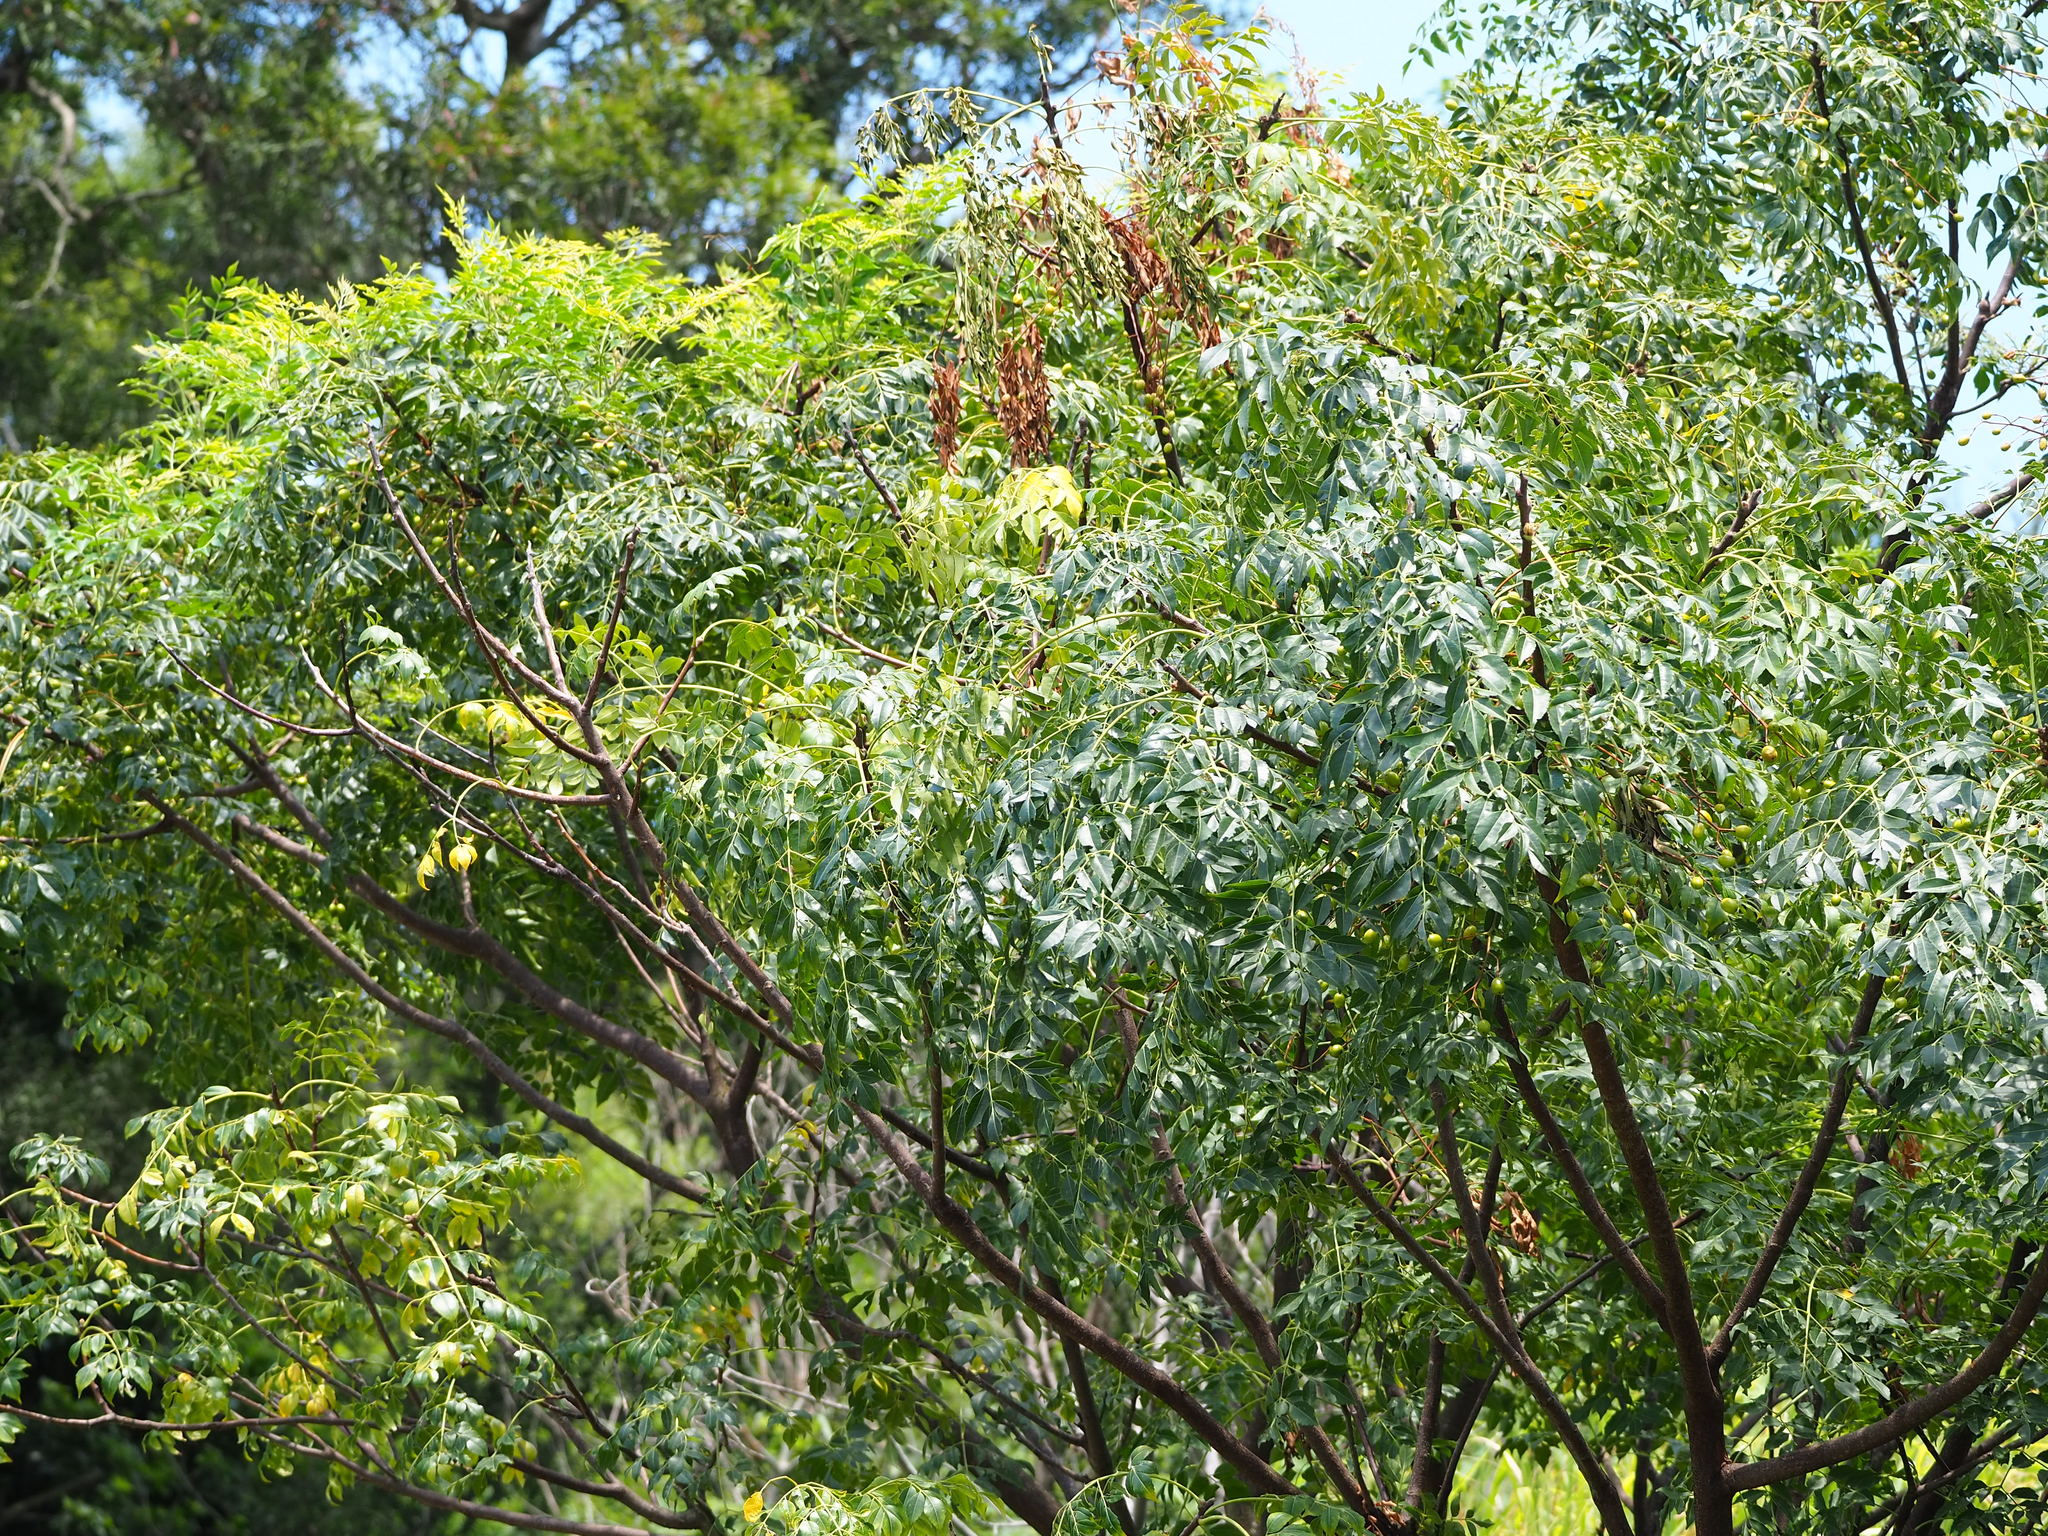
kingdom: Plantae
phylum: Tracheophyta
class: Magnoliopsida
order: Sapindales
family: Meliaceae
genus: Melia
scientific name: Melia azedarach
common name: Chinaberrytree
